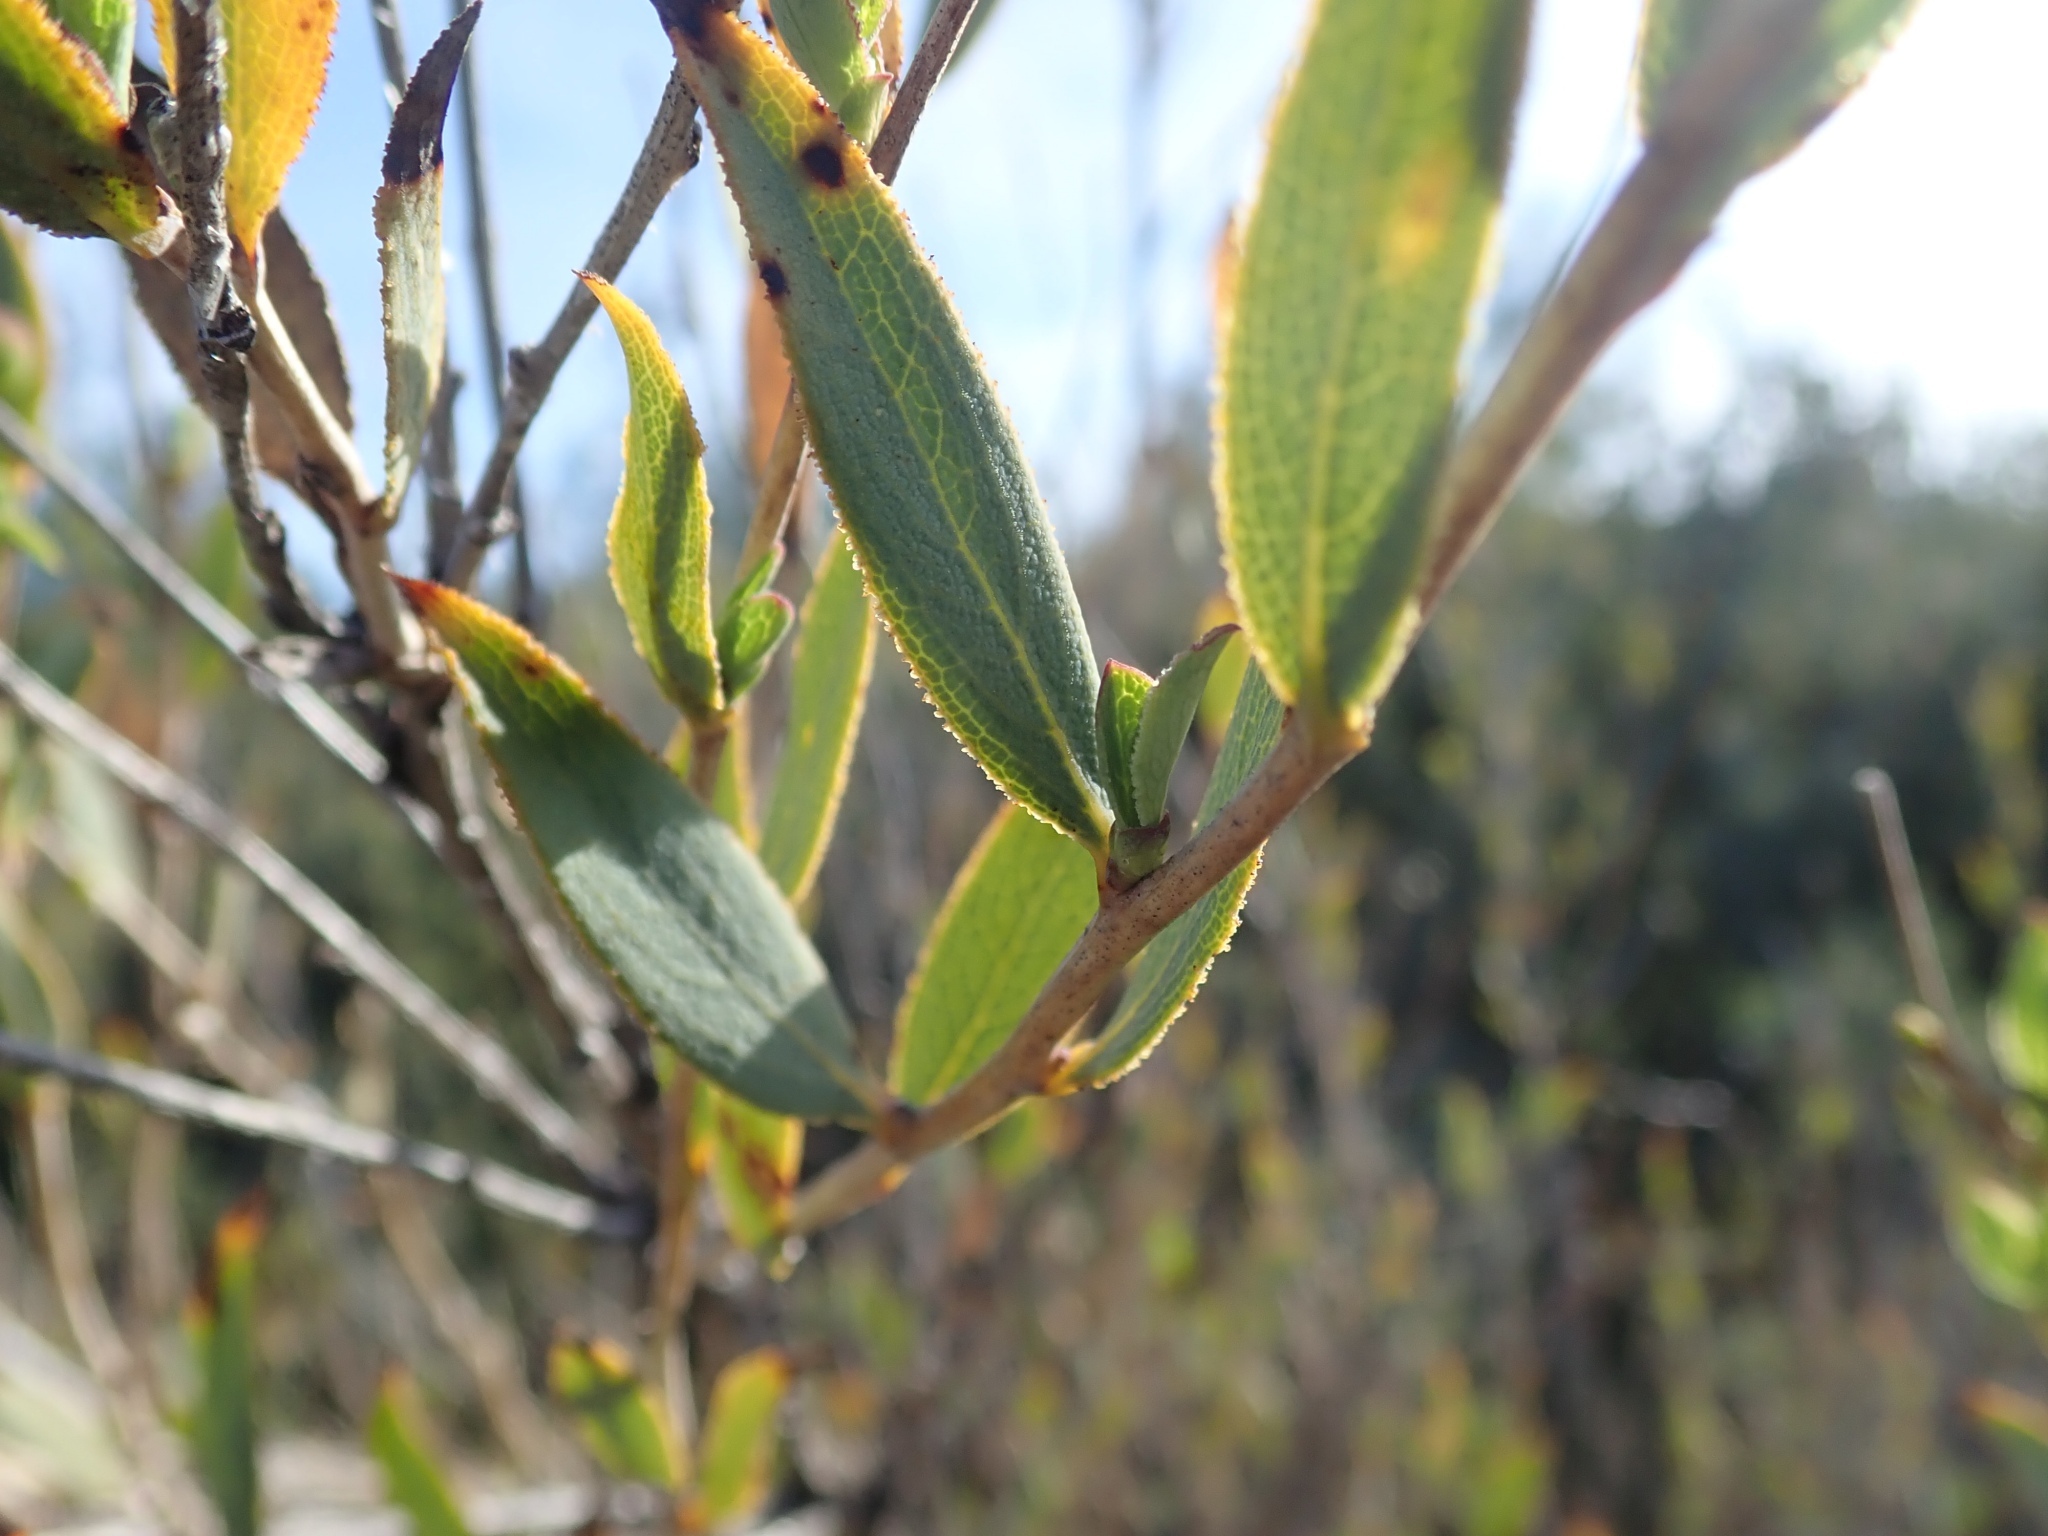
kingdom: Plantae
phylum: Tracheophyta
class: Magnoliopsida
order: Ranunculales
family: Papaveraceae
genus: Dendromecon
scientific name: Dendromecon rigida
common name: Tree poppy
